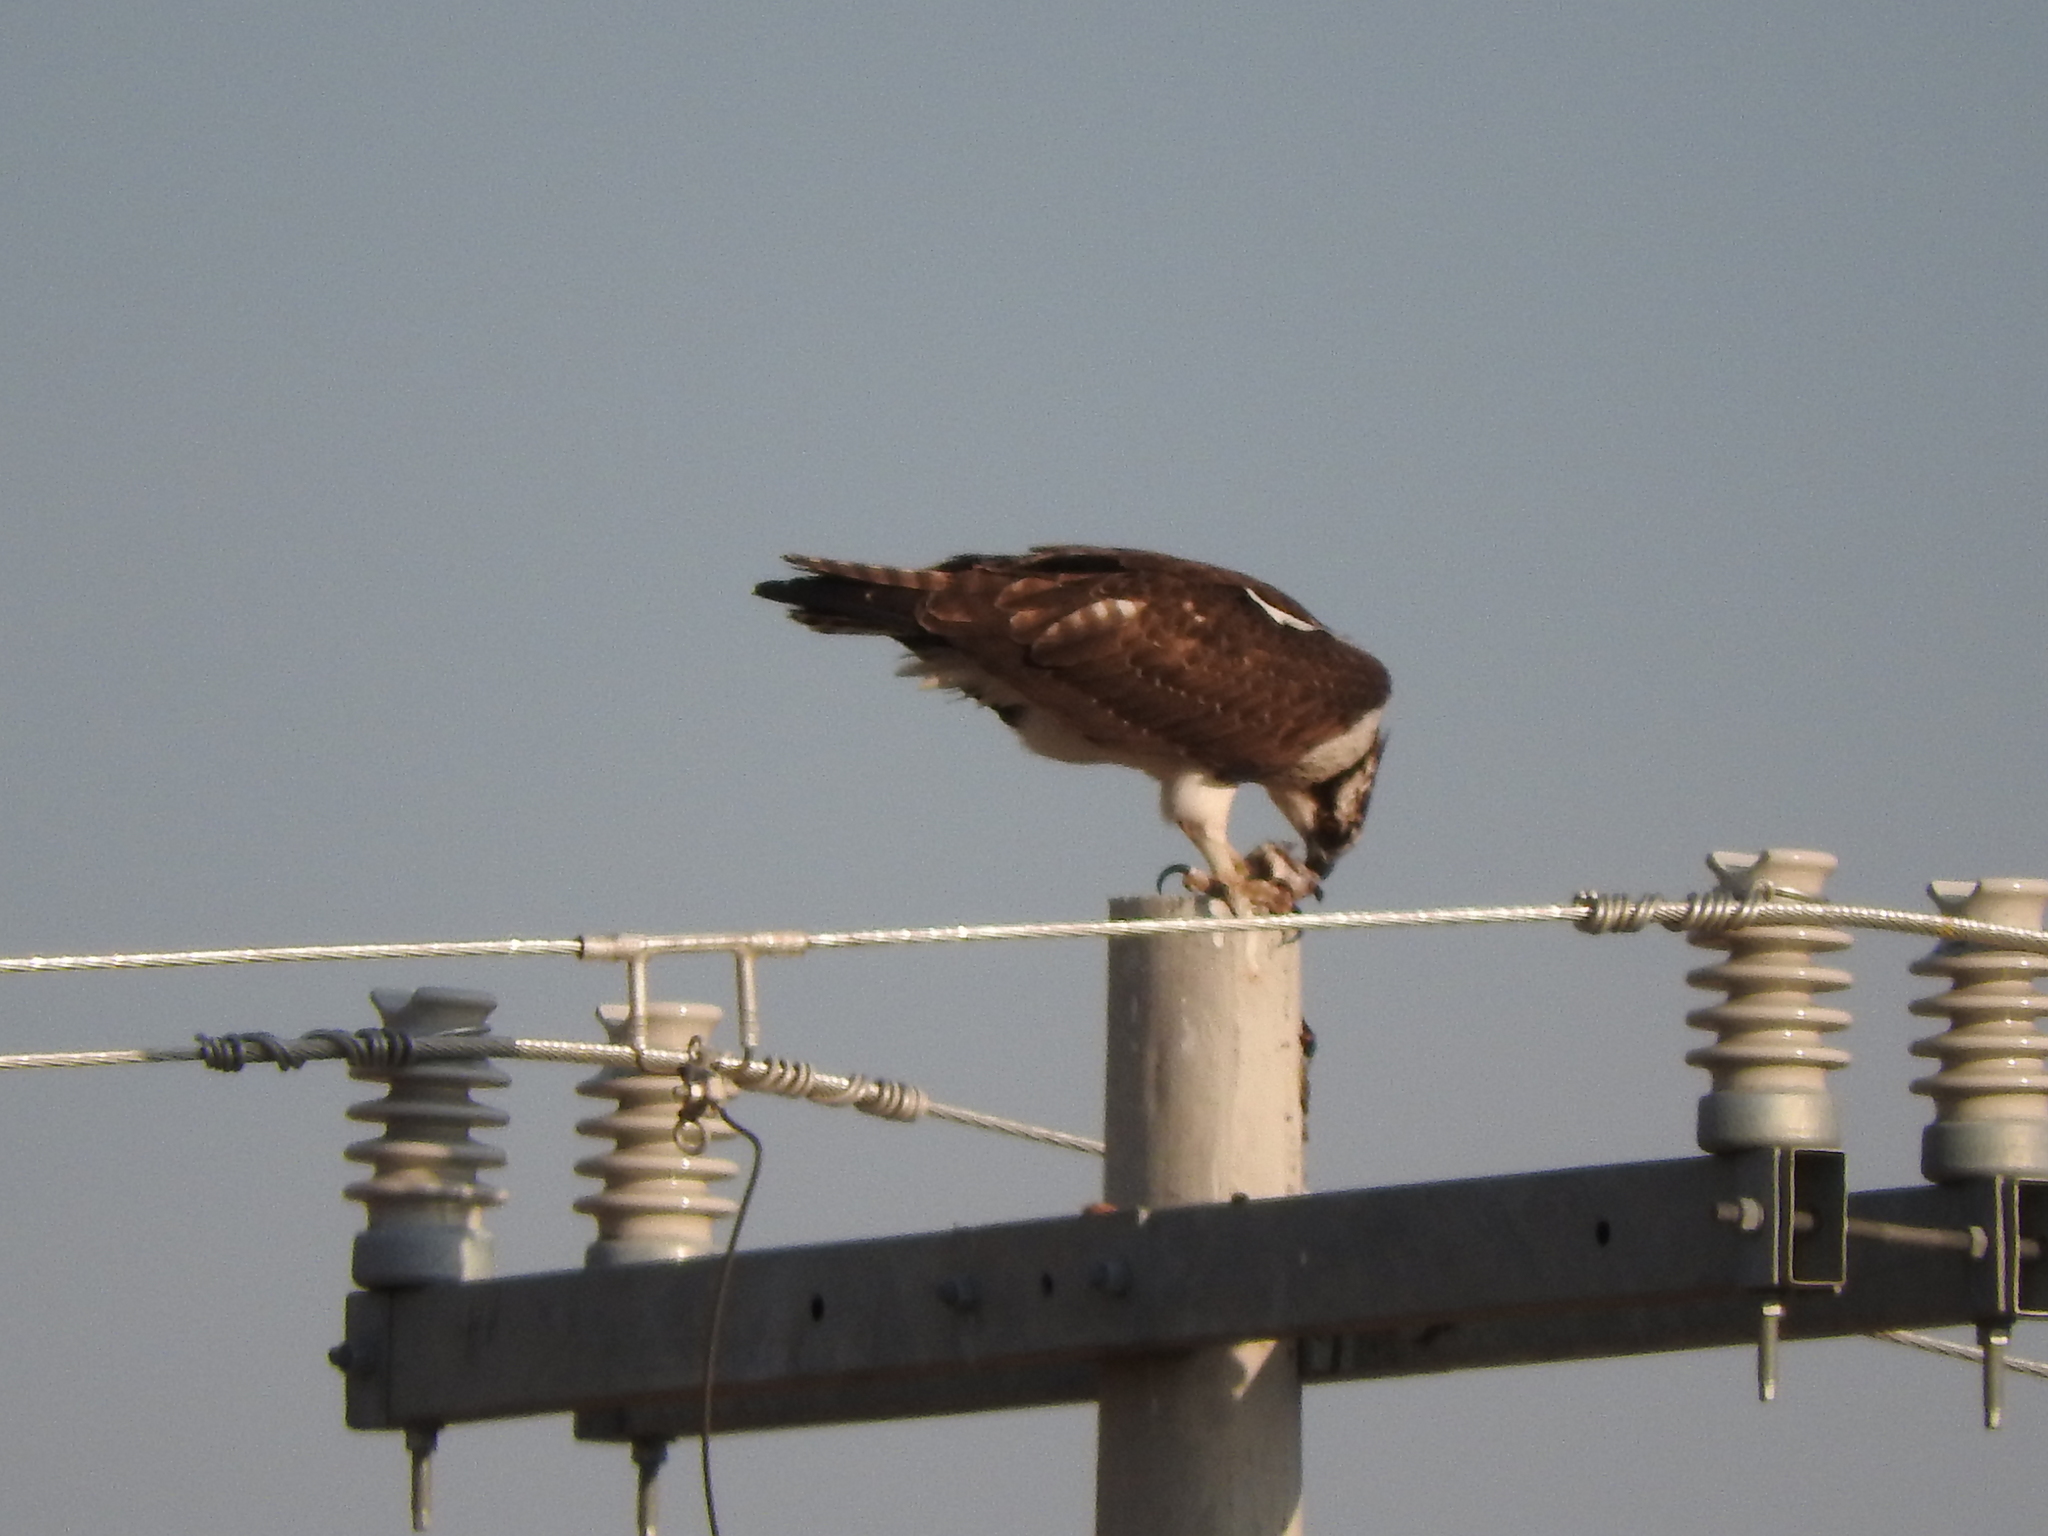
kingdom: Animalia
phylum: Chordata
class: Aves
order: Accipitriformes
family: Pandionidae
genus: Pandion
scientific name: Pandion haliaetus
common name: Osprey
